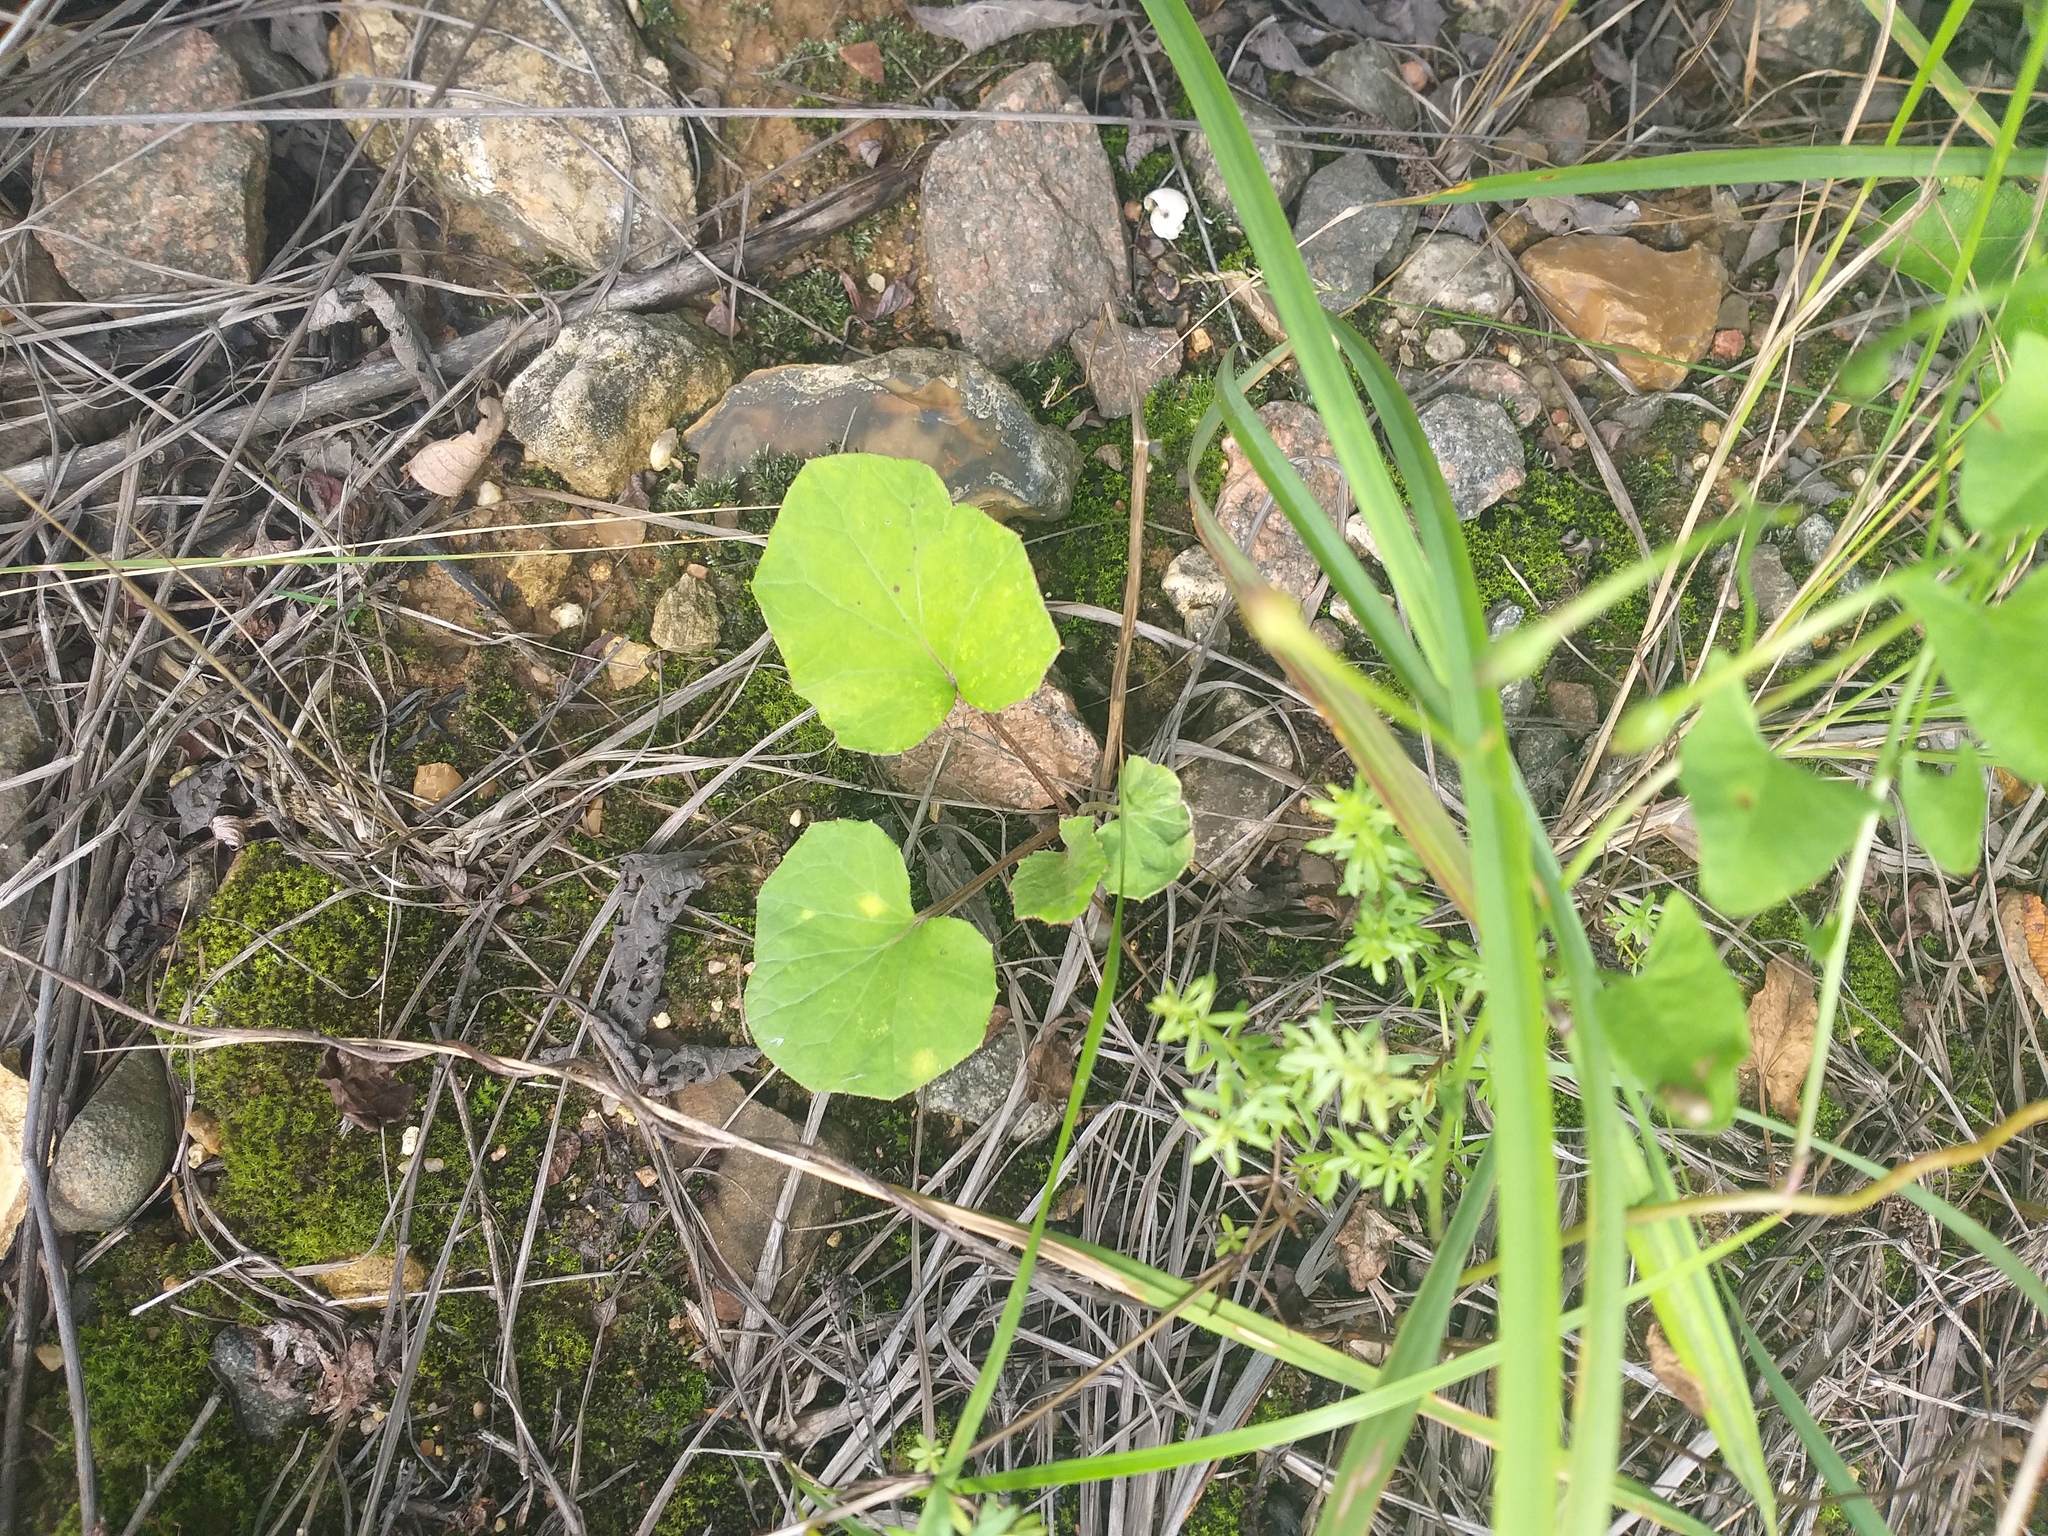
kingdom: Plantae
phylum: Tracheophyta
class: Magnoliopsida
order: Asterales
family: Asteraceae
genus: Tussilago
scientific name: Tussilago farfara
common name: Coltsfoot
